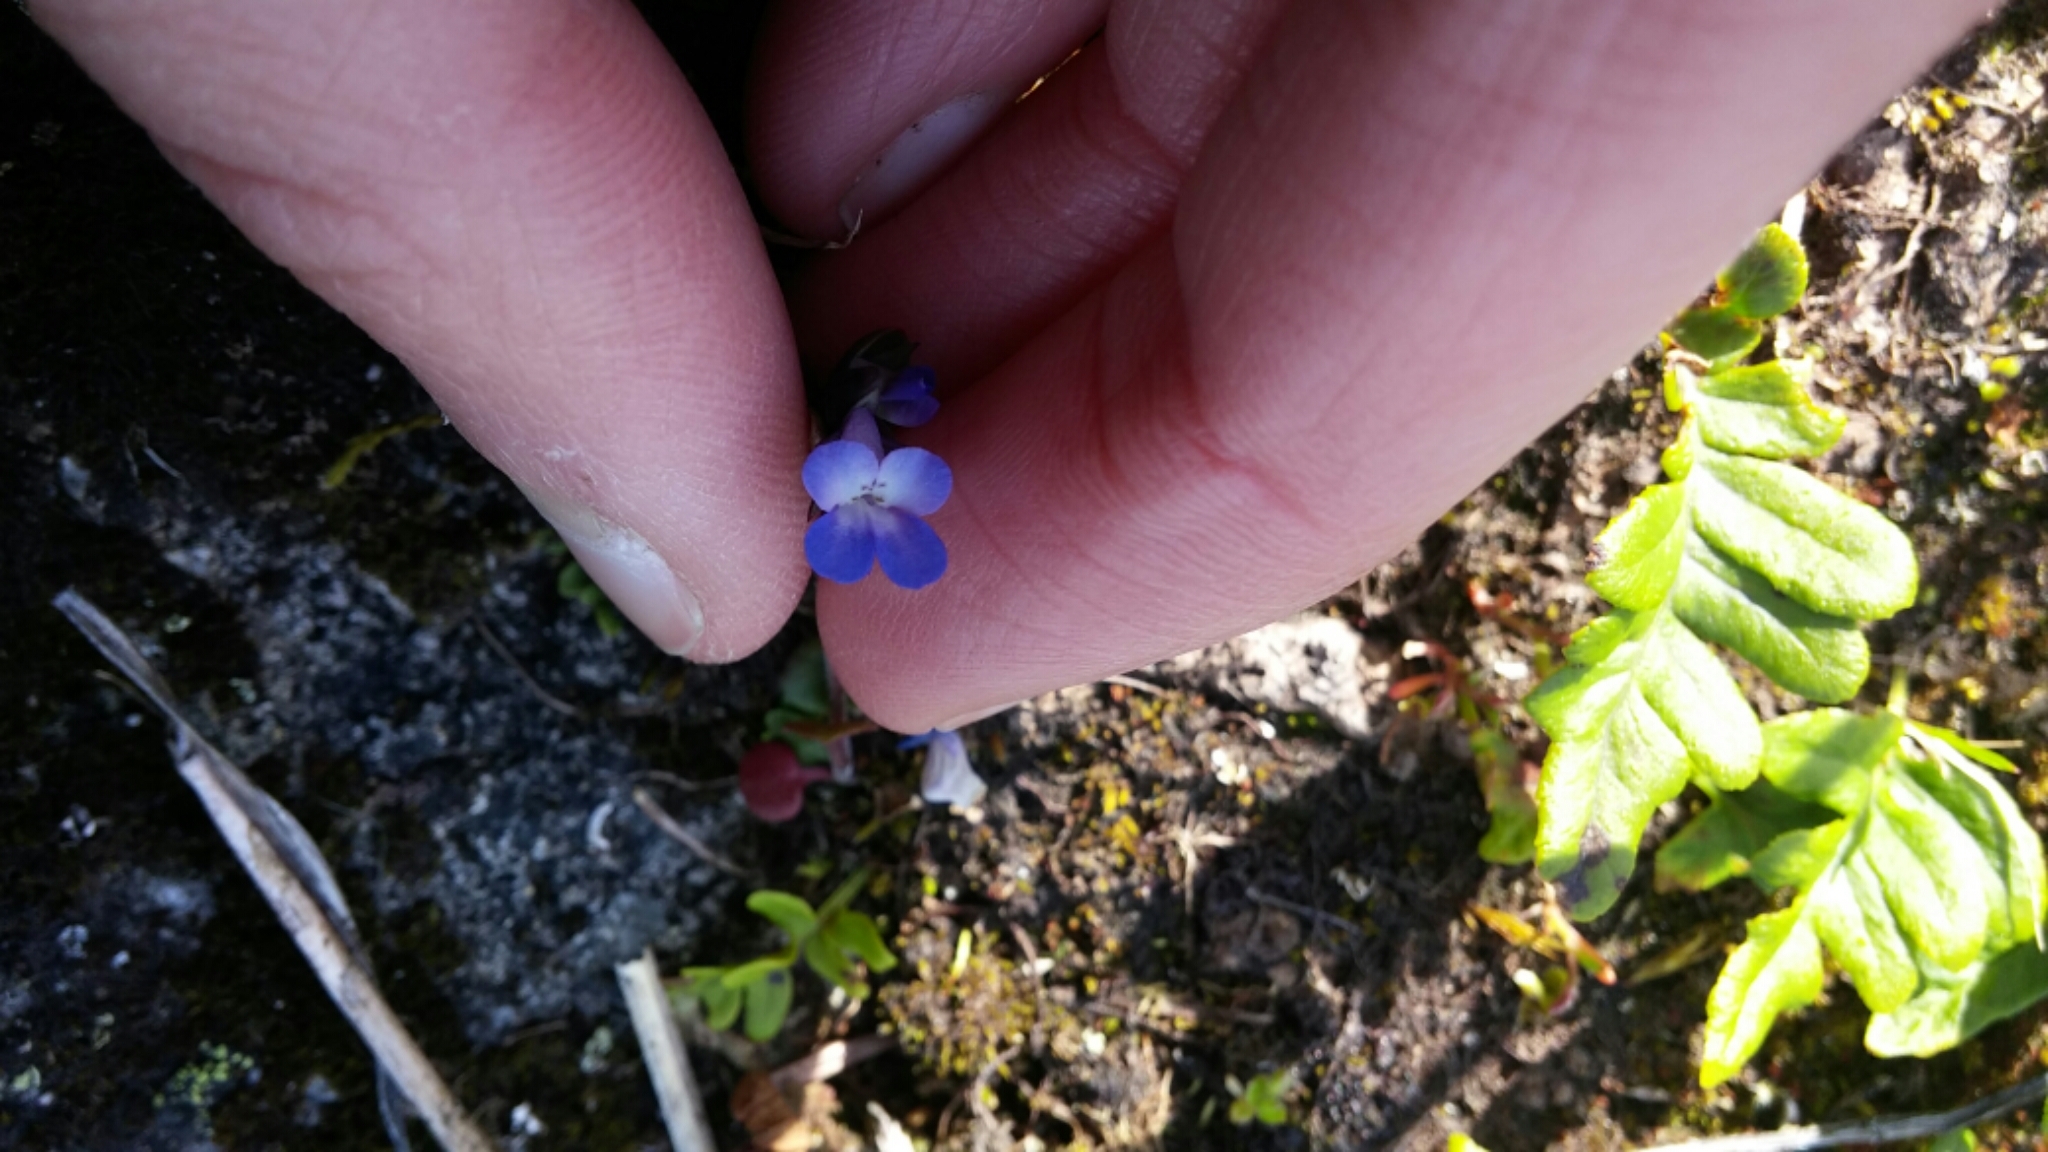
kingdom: Plantae
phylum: Tracheophyta
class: Magnoliopsida
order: Lamiales
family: Plantaginaceae
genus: Collinsia
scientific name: Collinsia parviflora
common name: Blue-lips
